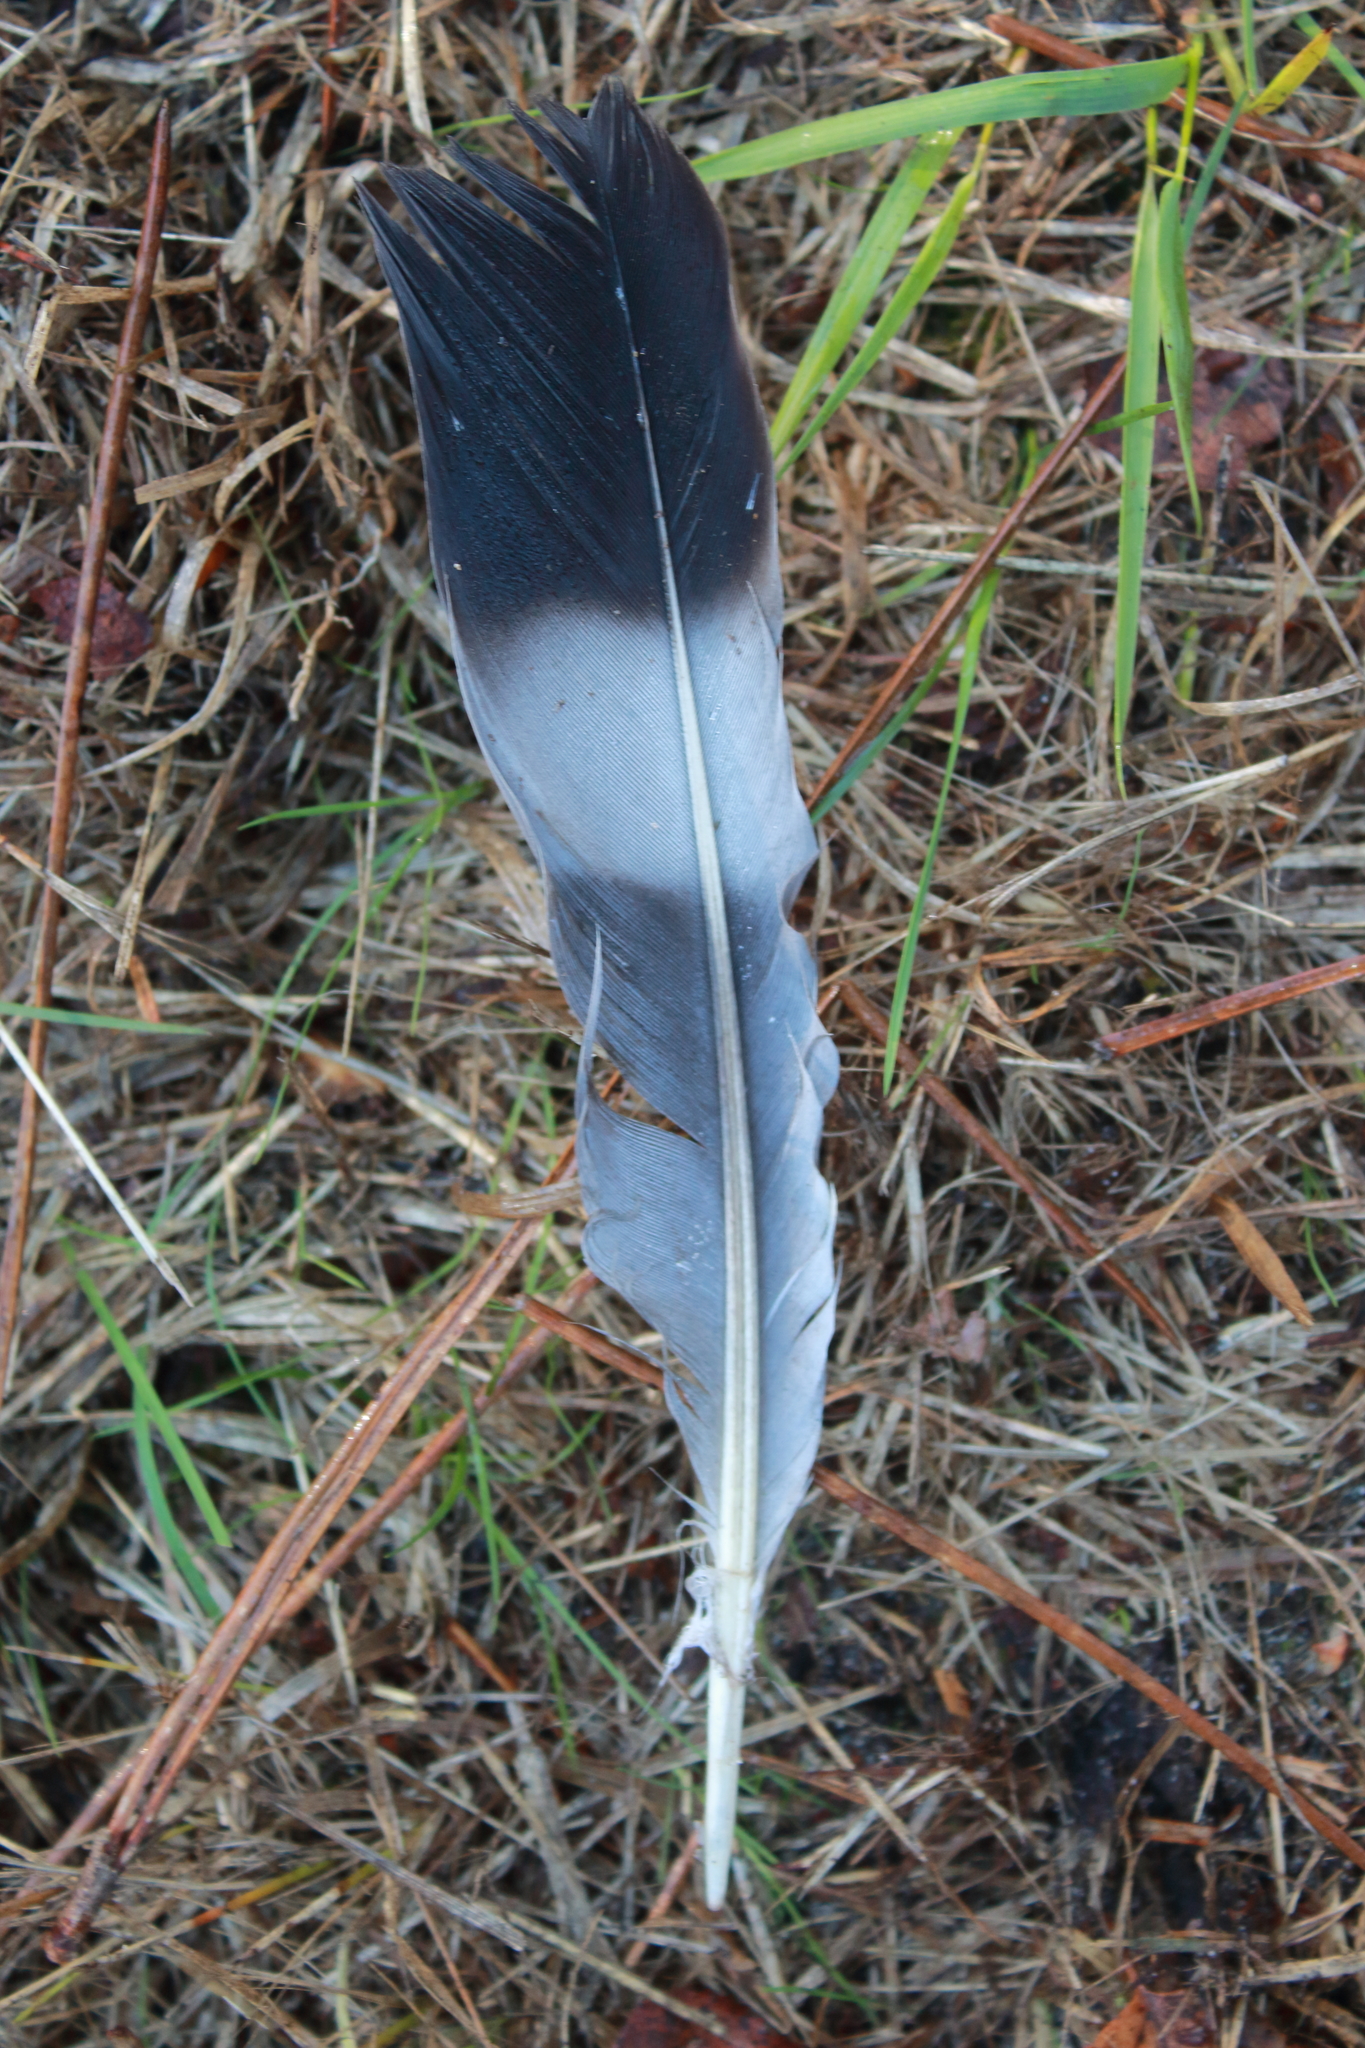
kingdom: Animalia
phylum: Chordata
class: Aves
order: Columbiformes
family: Columbidae
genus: Columba
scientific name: Columba palumbus
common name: Common wood pigeon
